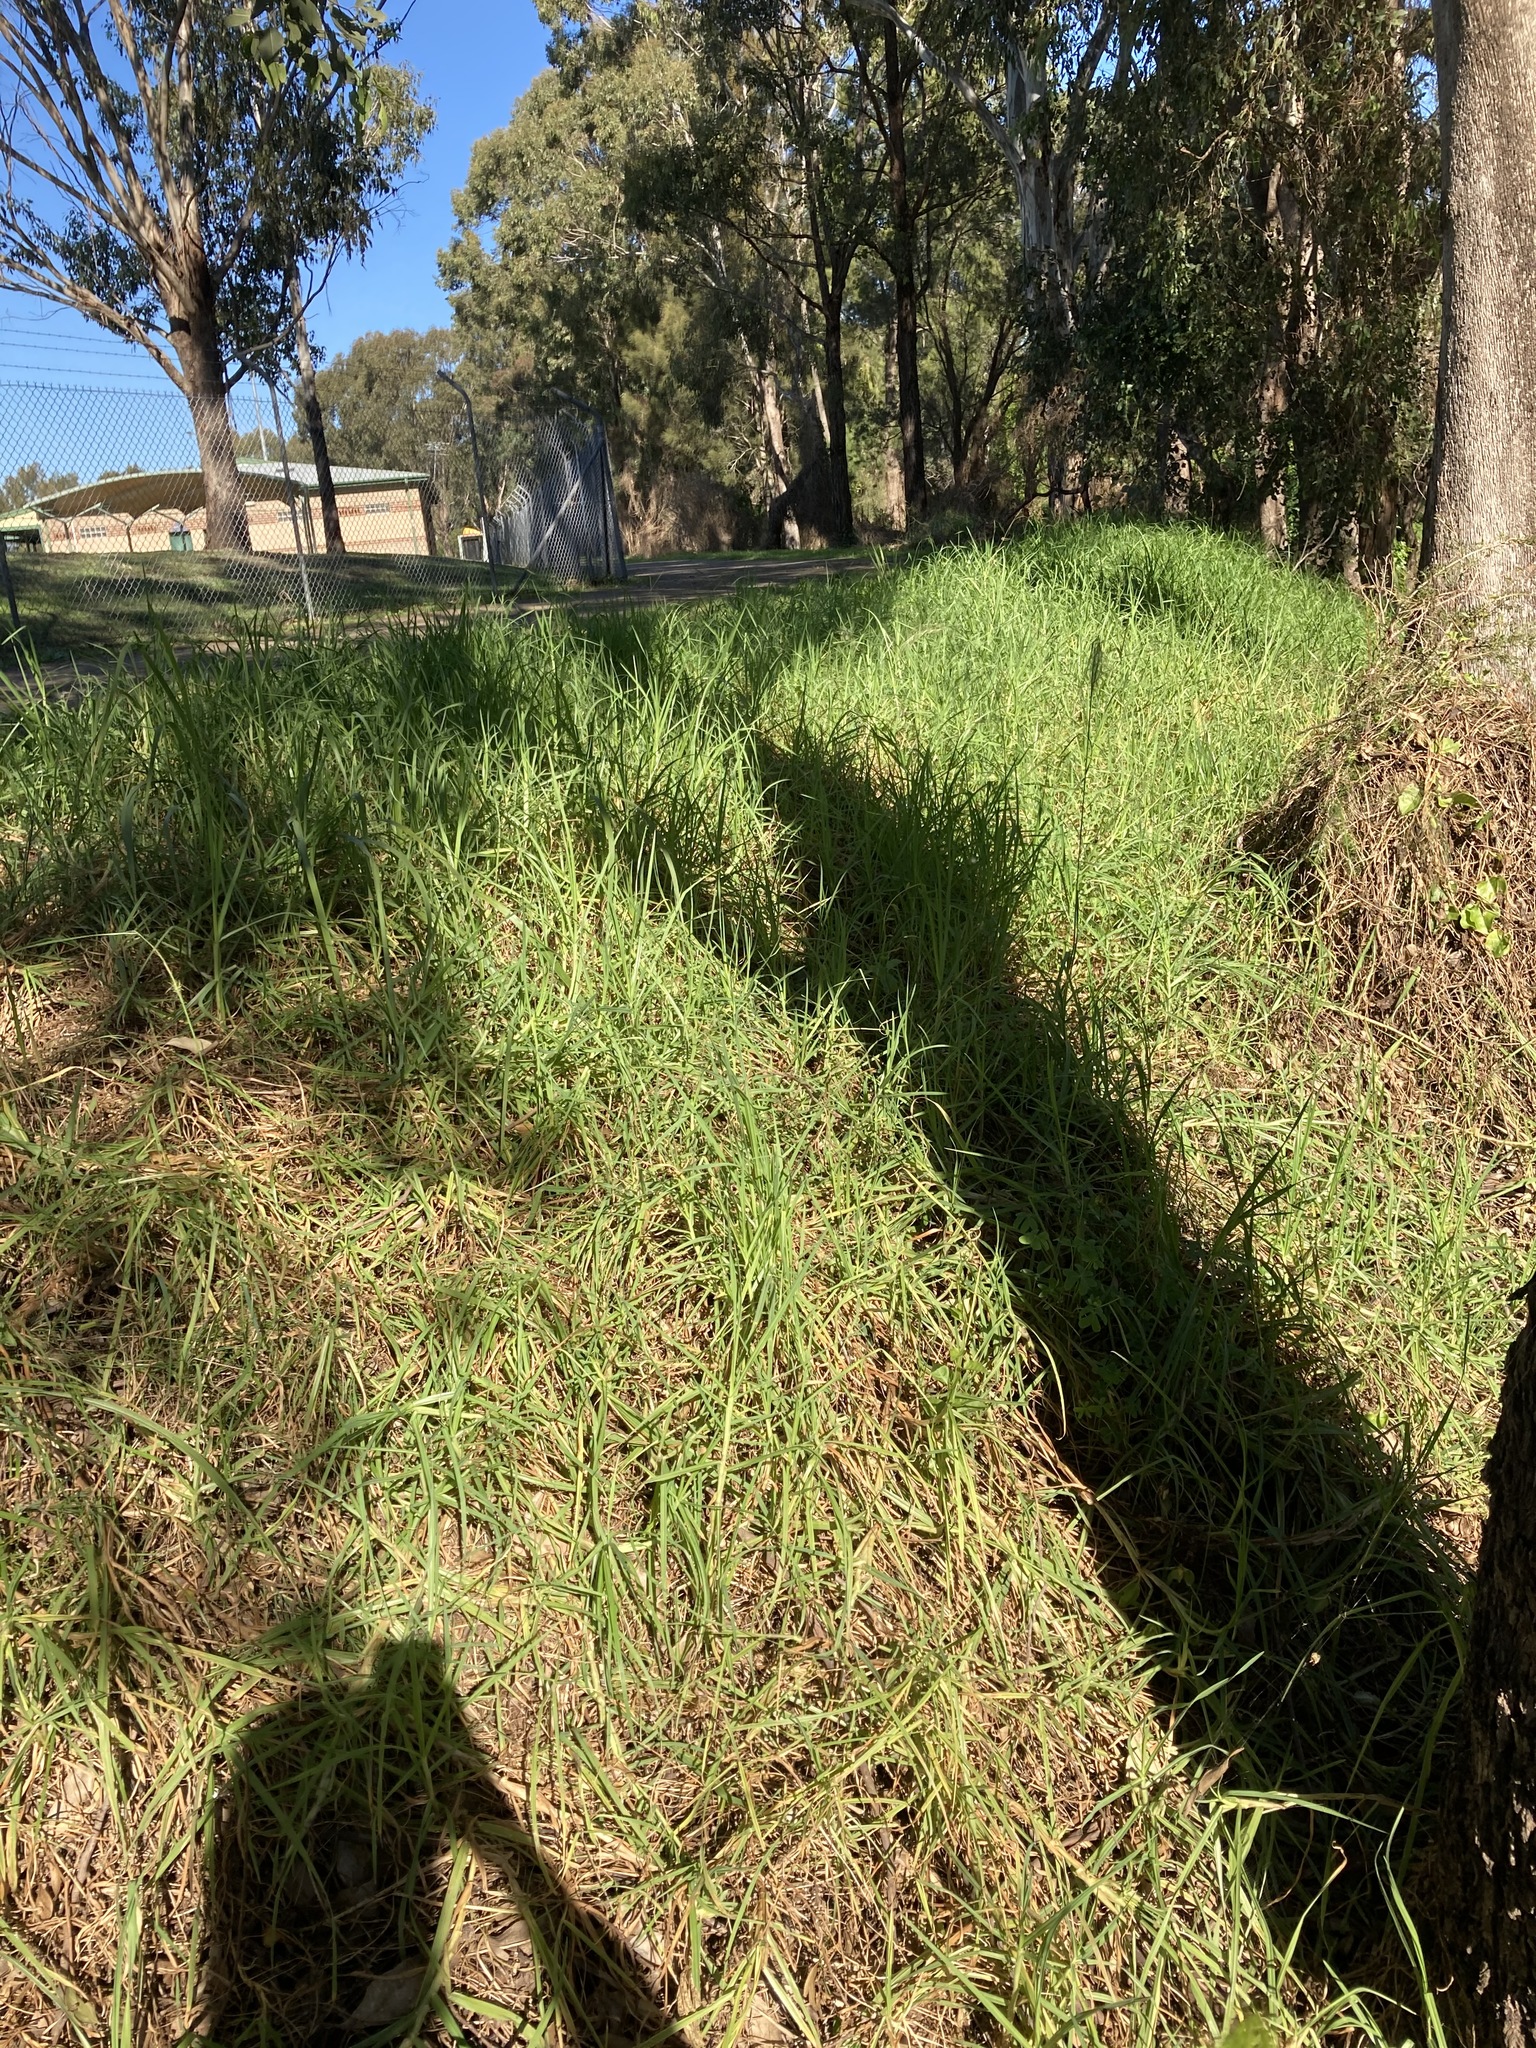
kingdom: Plantae
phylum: Tracheophyta
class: Liliopsida
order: Poales
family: Poaceae
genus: Cenchrus
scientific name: Cenchrus clandestinus
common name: Kikuyugrass
